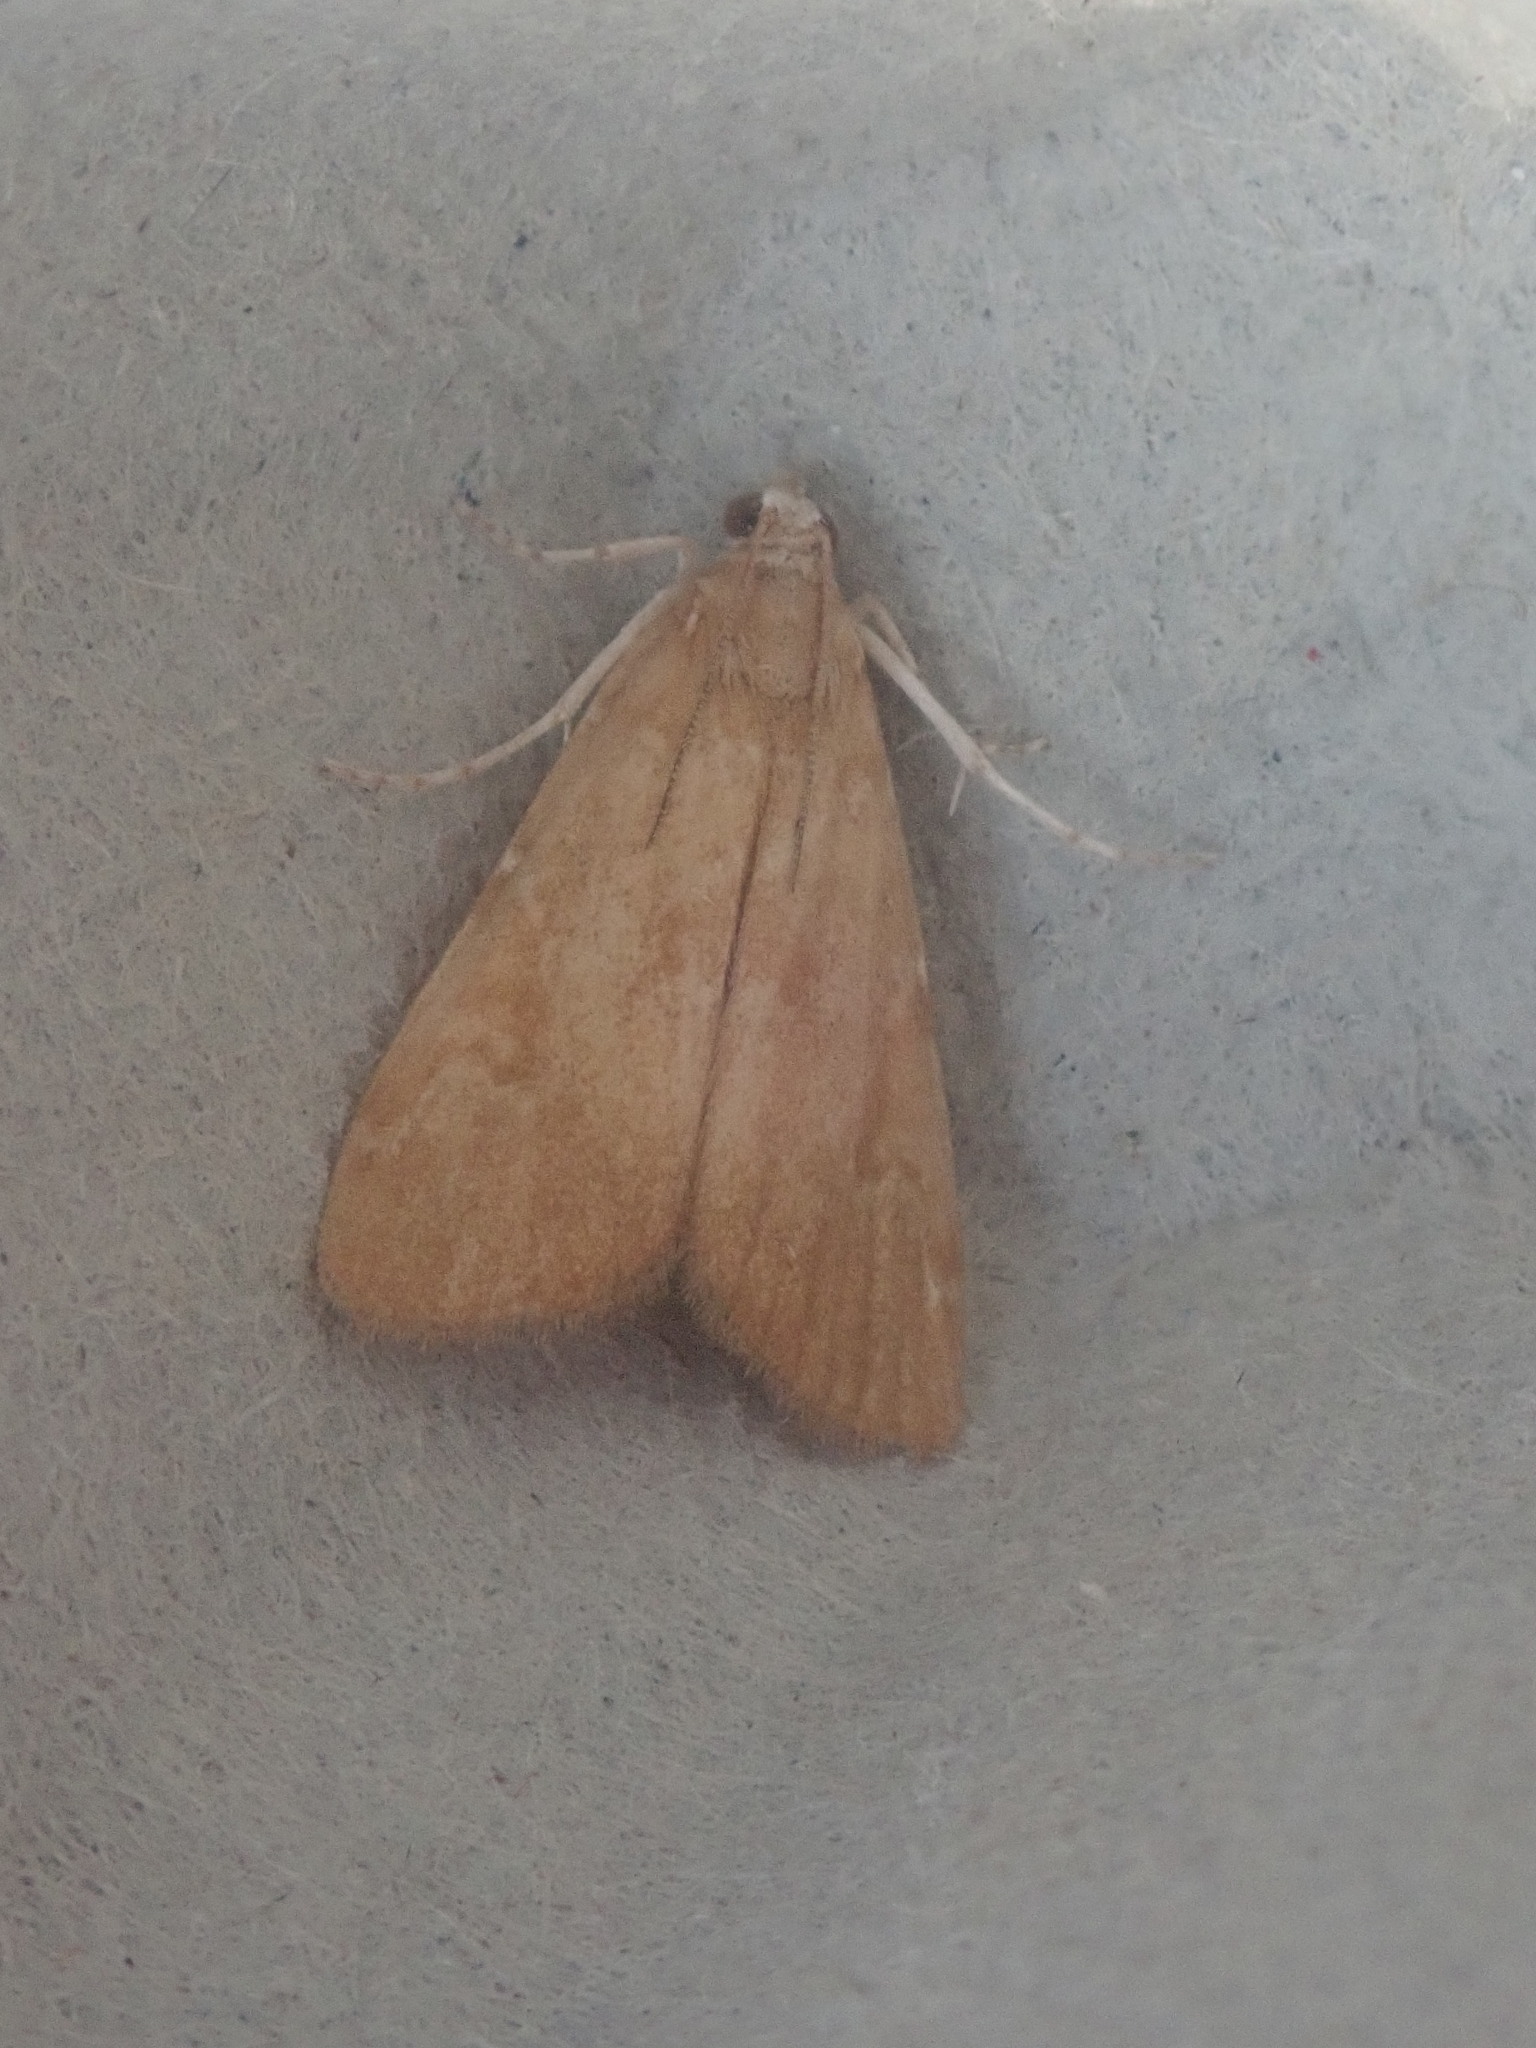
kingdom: Animalia
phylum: Arthropoda
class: Insecta
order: Lepidoptera
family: Crambidae
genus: Elophila
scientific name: Elophila gyralis
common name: Waterlily borer moth
